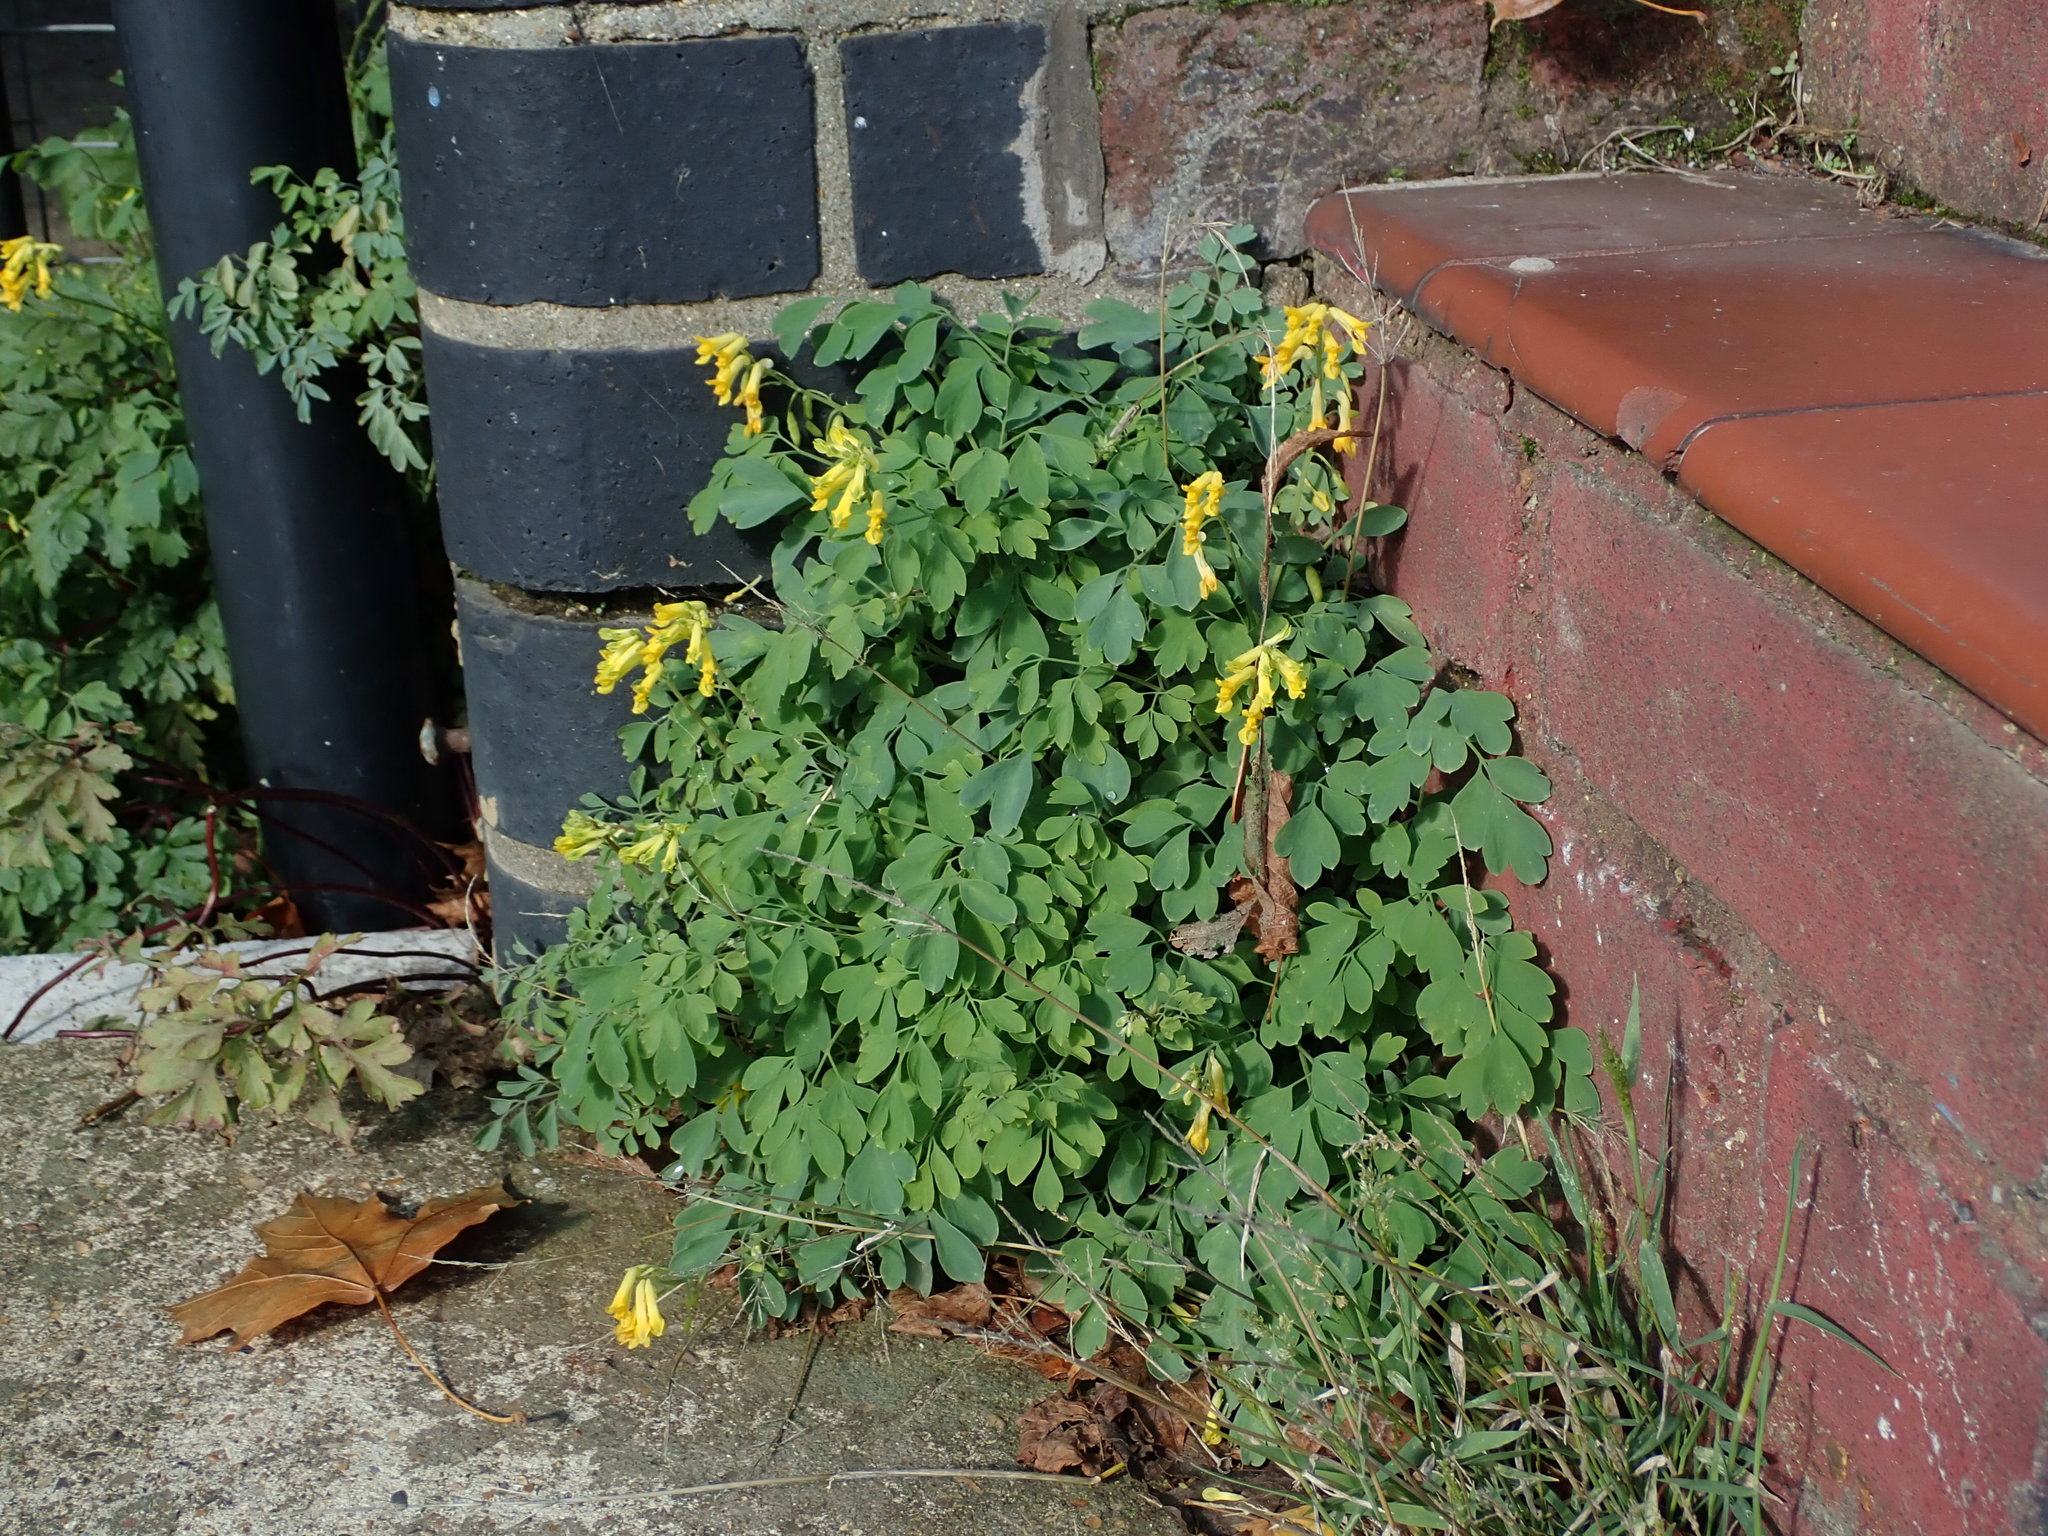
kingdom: Plantae
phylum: Tracheophyta
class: Magnoliopsida
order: Ranunculales
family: Papaveraceae
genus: Pseudofumaria
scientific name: Pseudofumaria lutea
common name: Yellow corydalis
